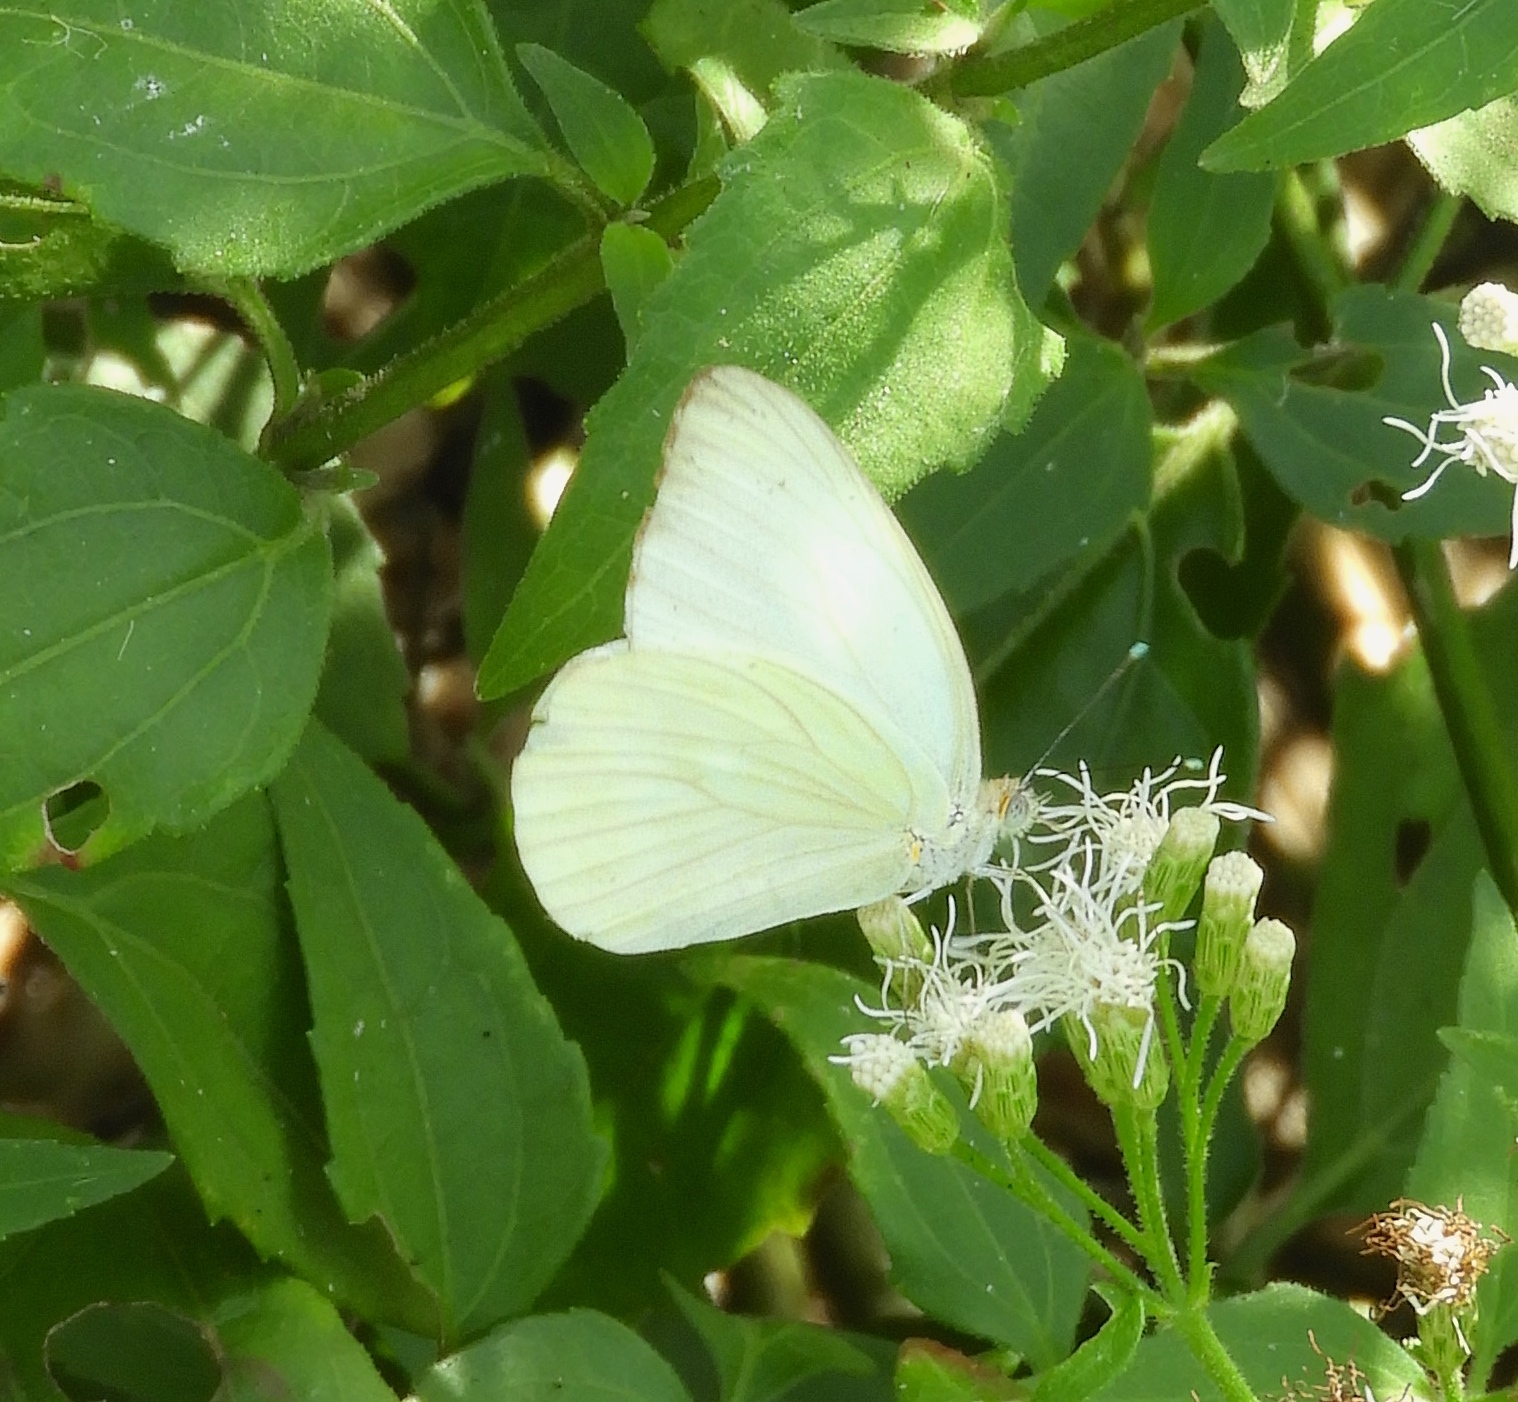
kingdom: Animalia
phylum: Arthropoda
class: Insecta
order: Lepidoptera
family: Pieridae
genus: Ascia
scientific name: Ascia monuste
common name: Great southern white
